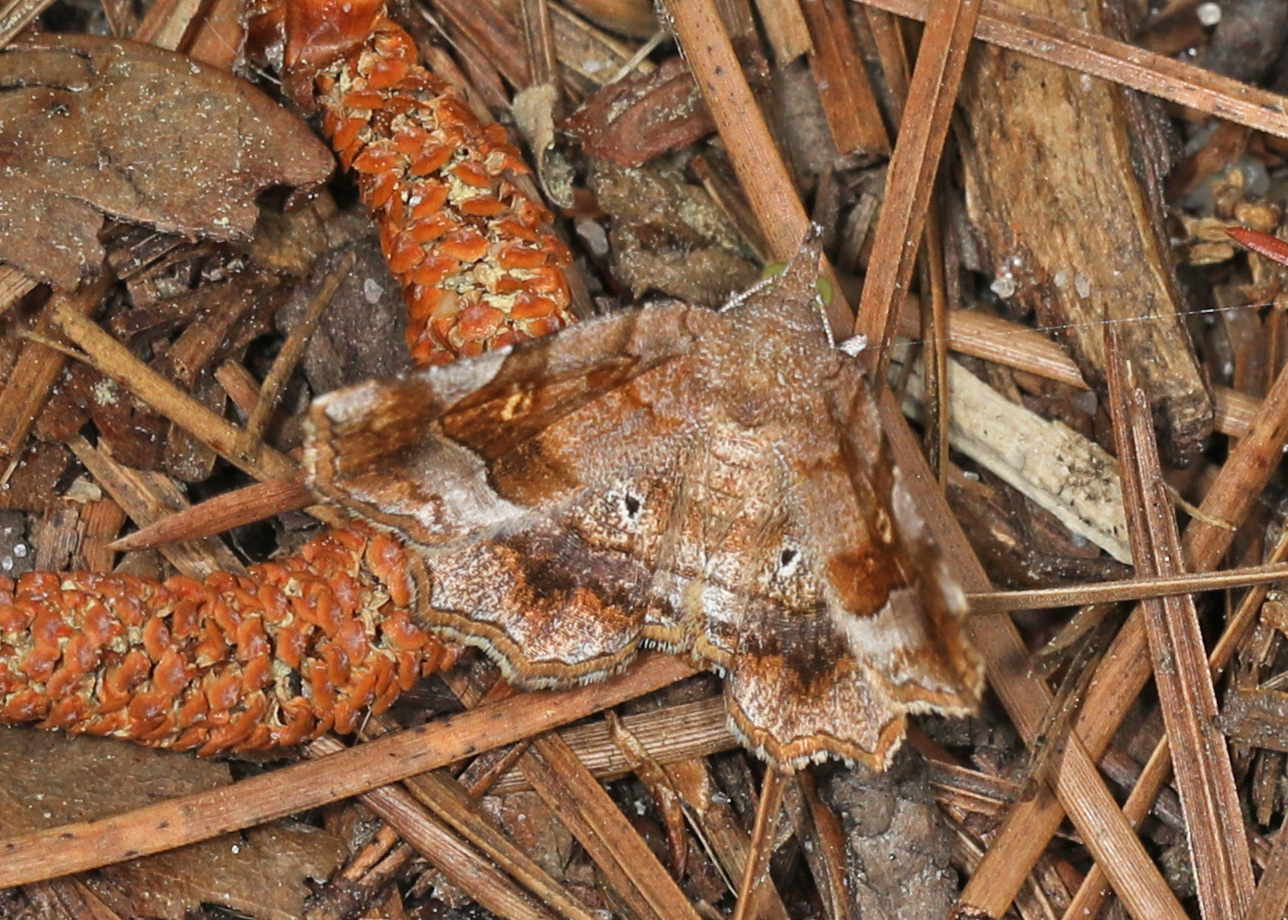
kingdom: Animalia
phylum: Arthropoda
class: Insecta
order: Lepidoptera
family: Erebidae
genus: Pangrapta
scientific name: Pangrapta decoralis
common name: Decorated owlet
